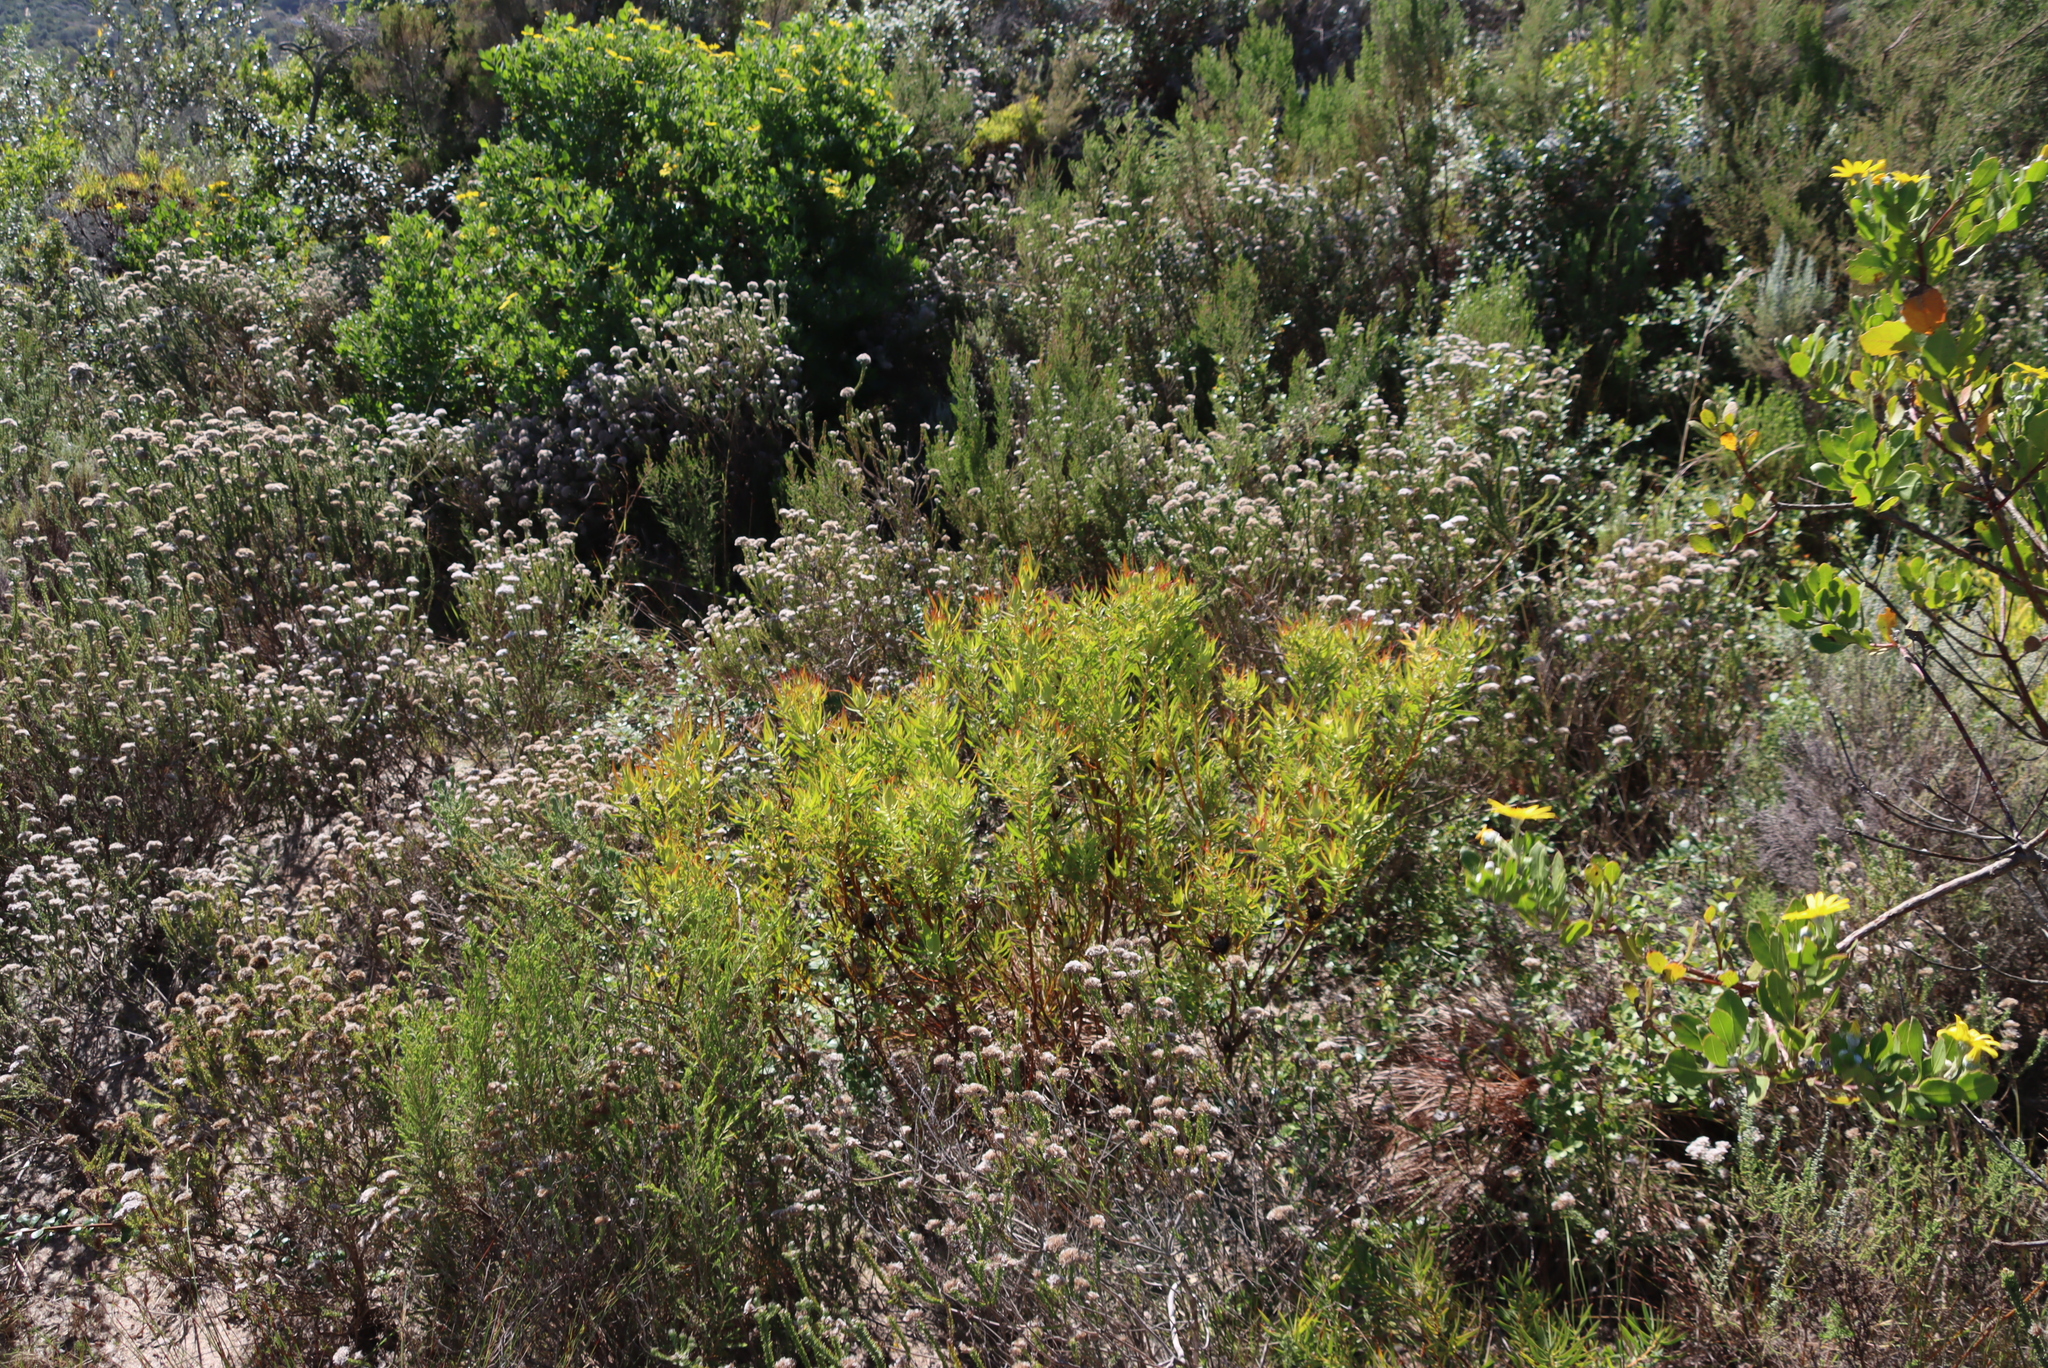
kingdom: Plantae
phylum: Tracheophyta
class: Magnoliopsida
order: Proteales
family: Proteaceae
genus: Leucadendron
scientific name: Leucadendron salignum
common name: Common sunshine conebush
